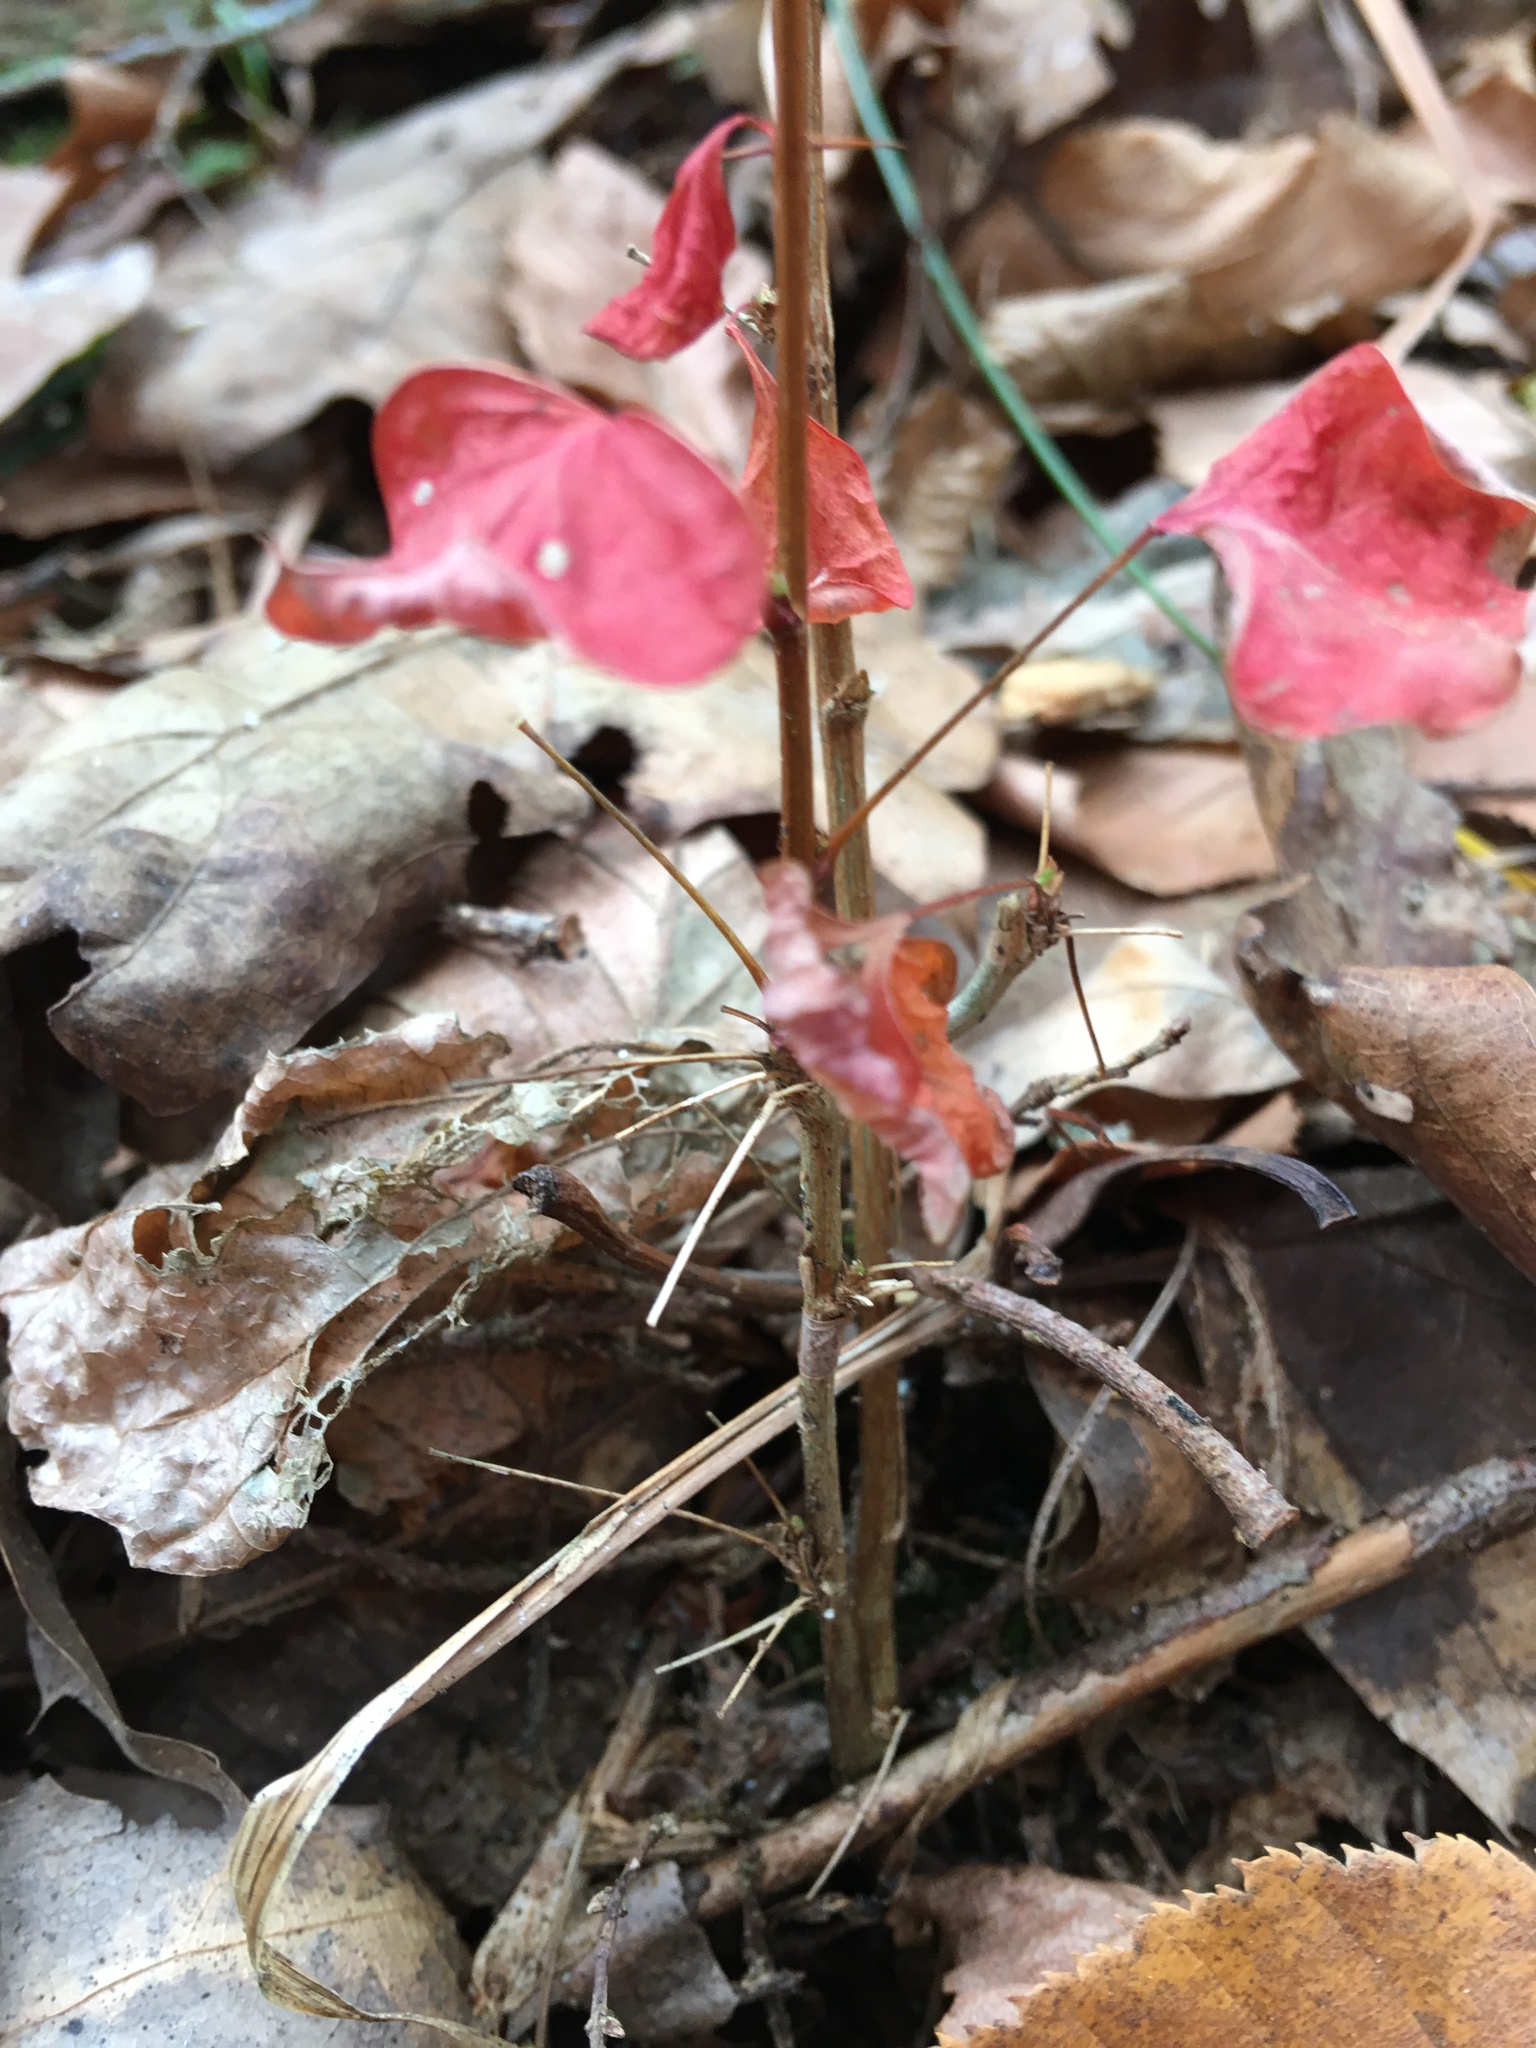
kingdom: Plantae
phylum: Tracheophyta
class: Magnoliopsida
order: Ranunculales
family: Berberidaceae
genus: Berberis
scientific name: Berberis thunbergii
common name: Japanese barberry
